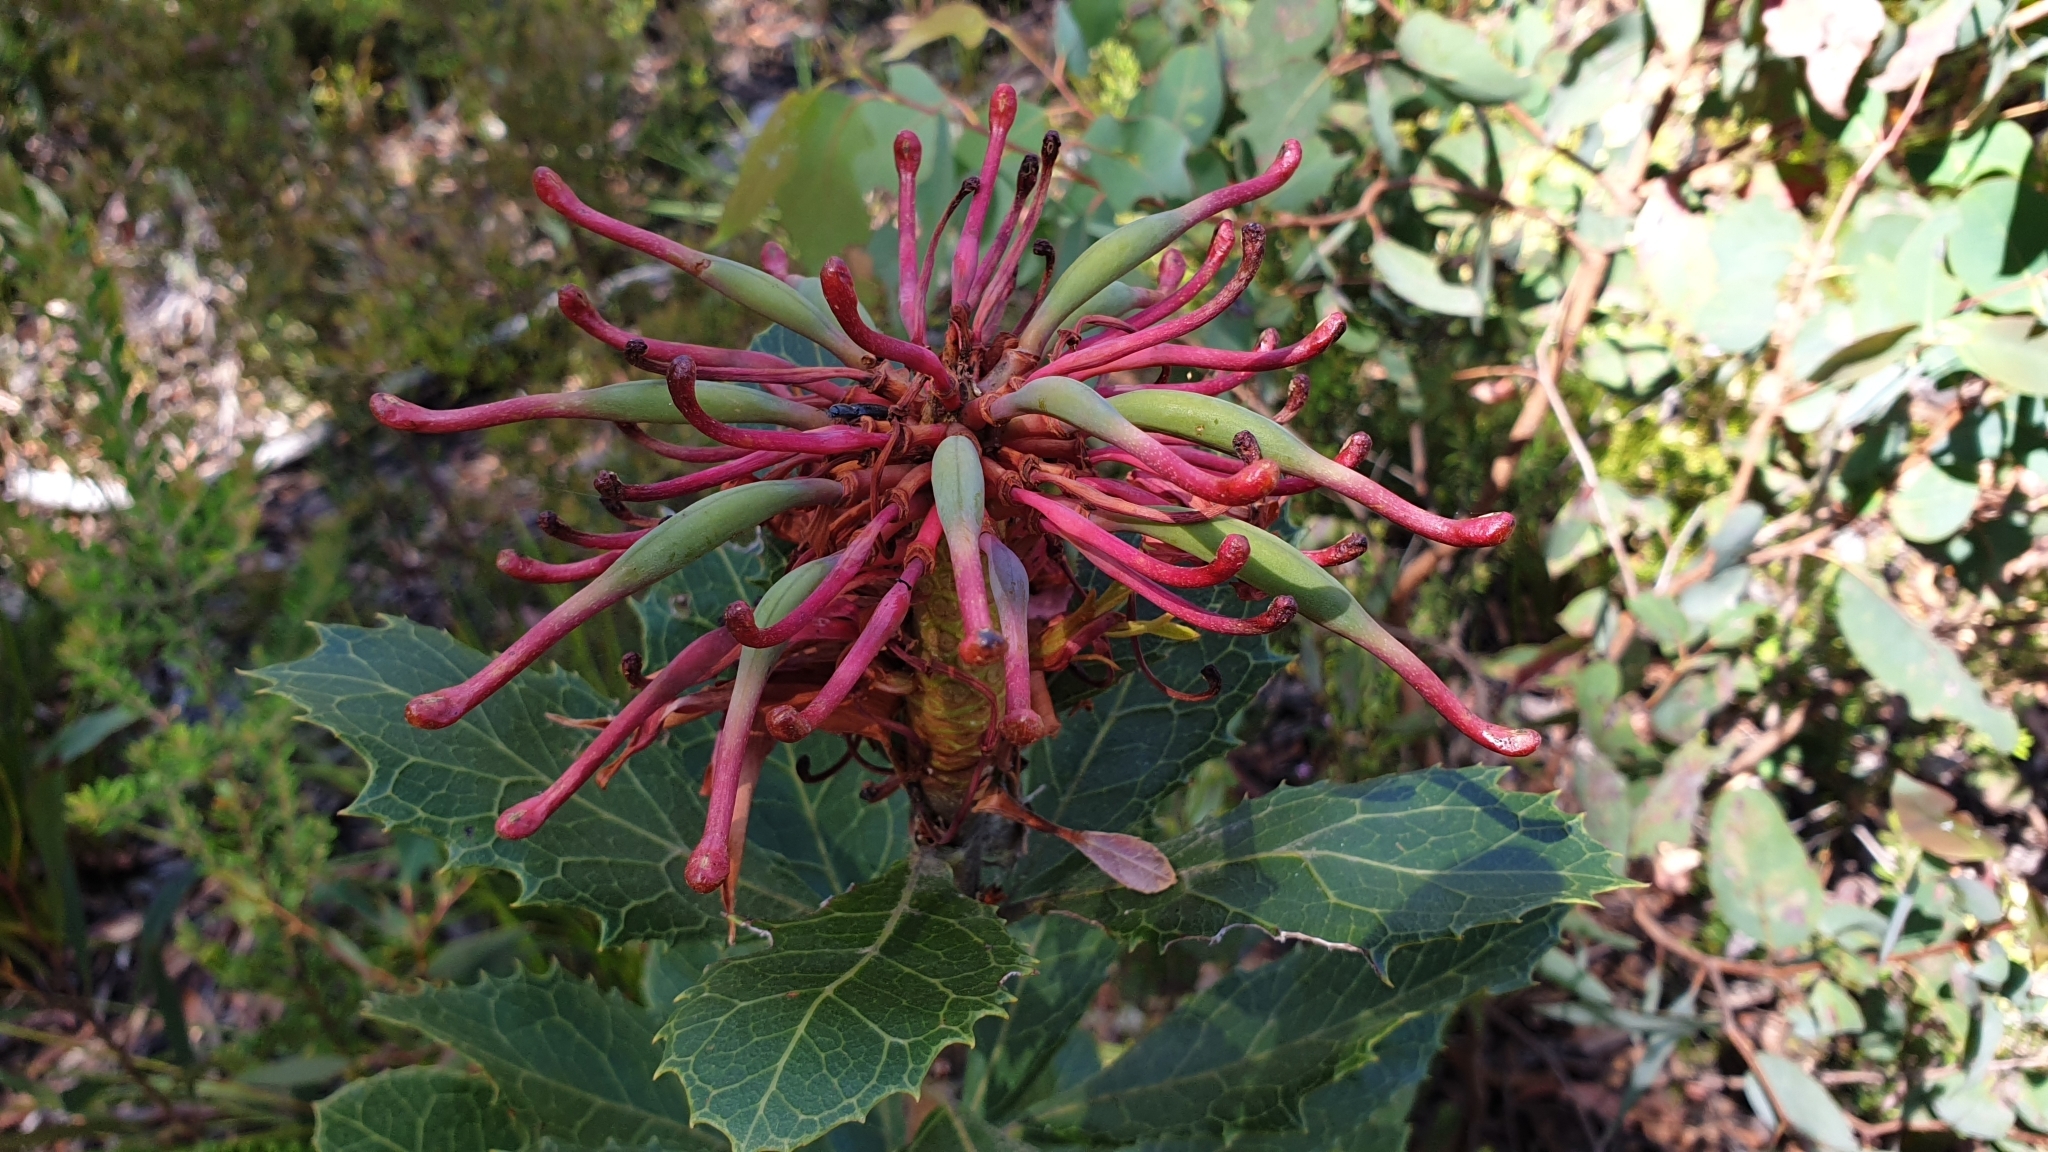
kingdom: Plantae
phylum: Tracheophyta
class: Magnoliopsida
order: Proteales
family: Proteaceae
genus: Telopea
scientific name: Telopea aspera
